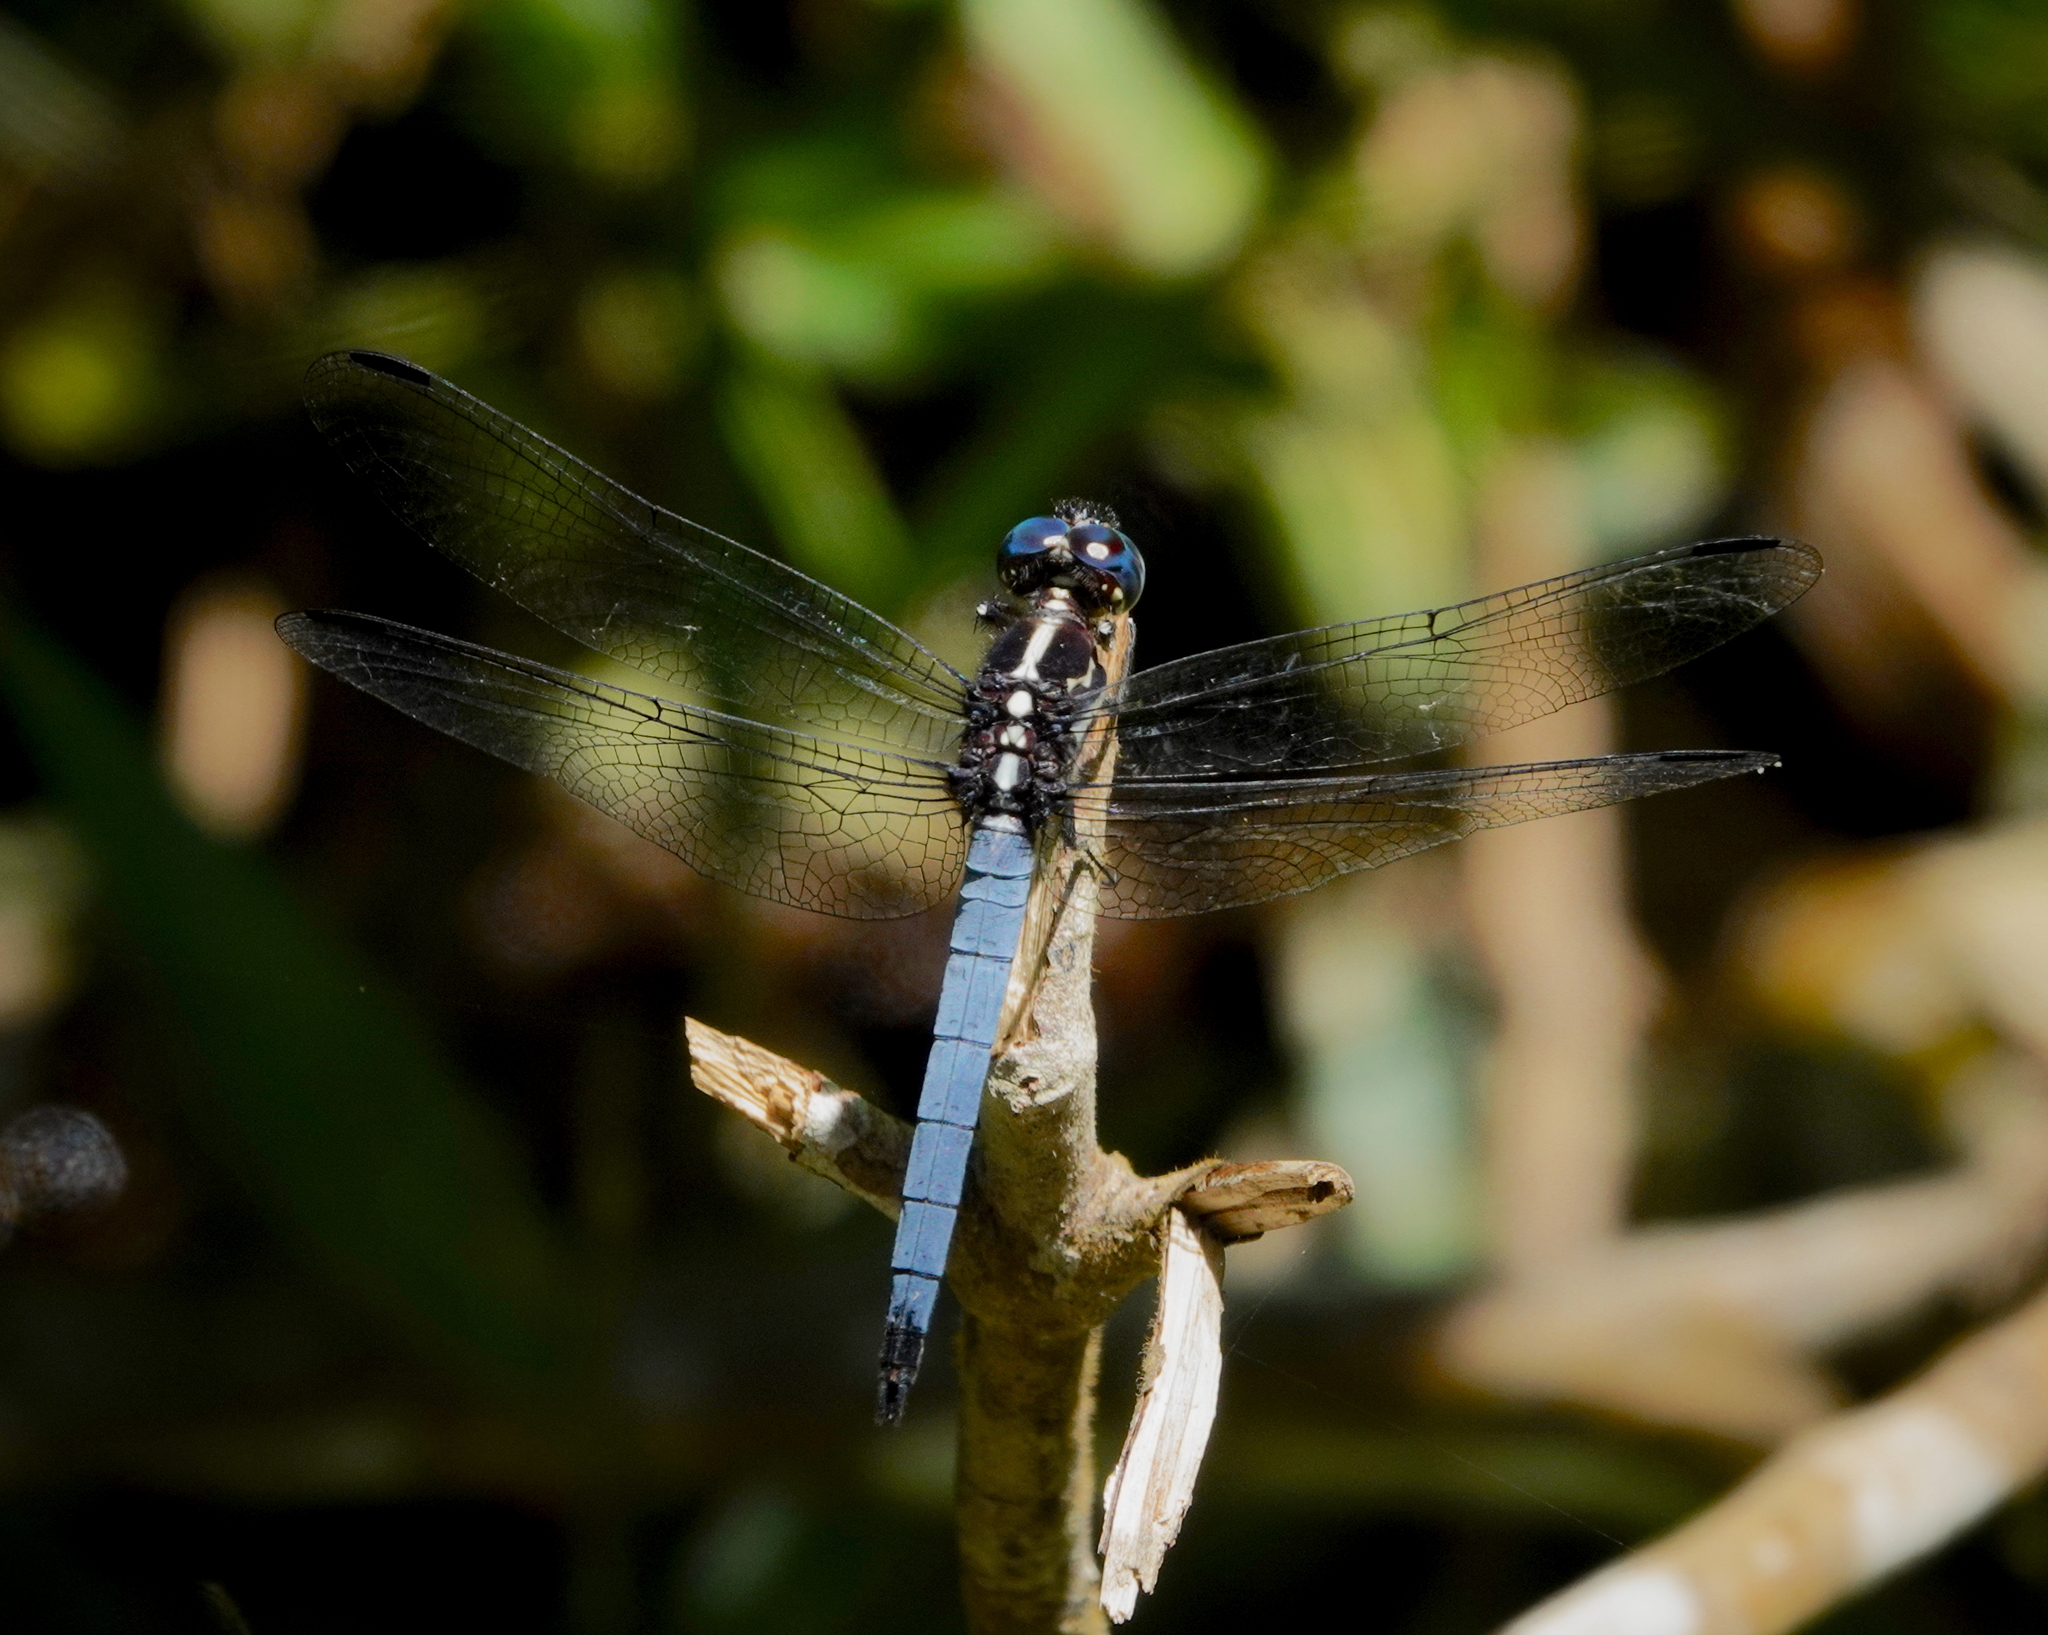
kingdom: Animalia
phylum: Arthropoda
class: Insecta
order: Odonata
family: Libellulidae
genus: Cannaphila
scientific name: Cannaphila vibex
